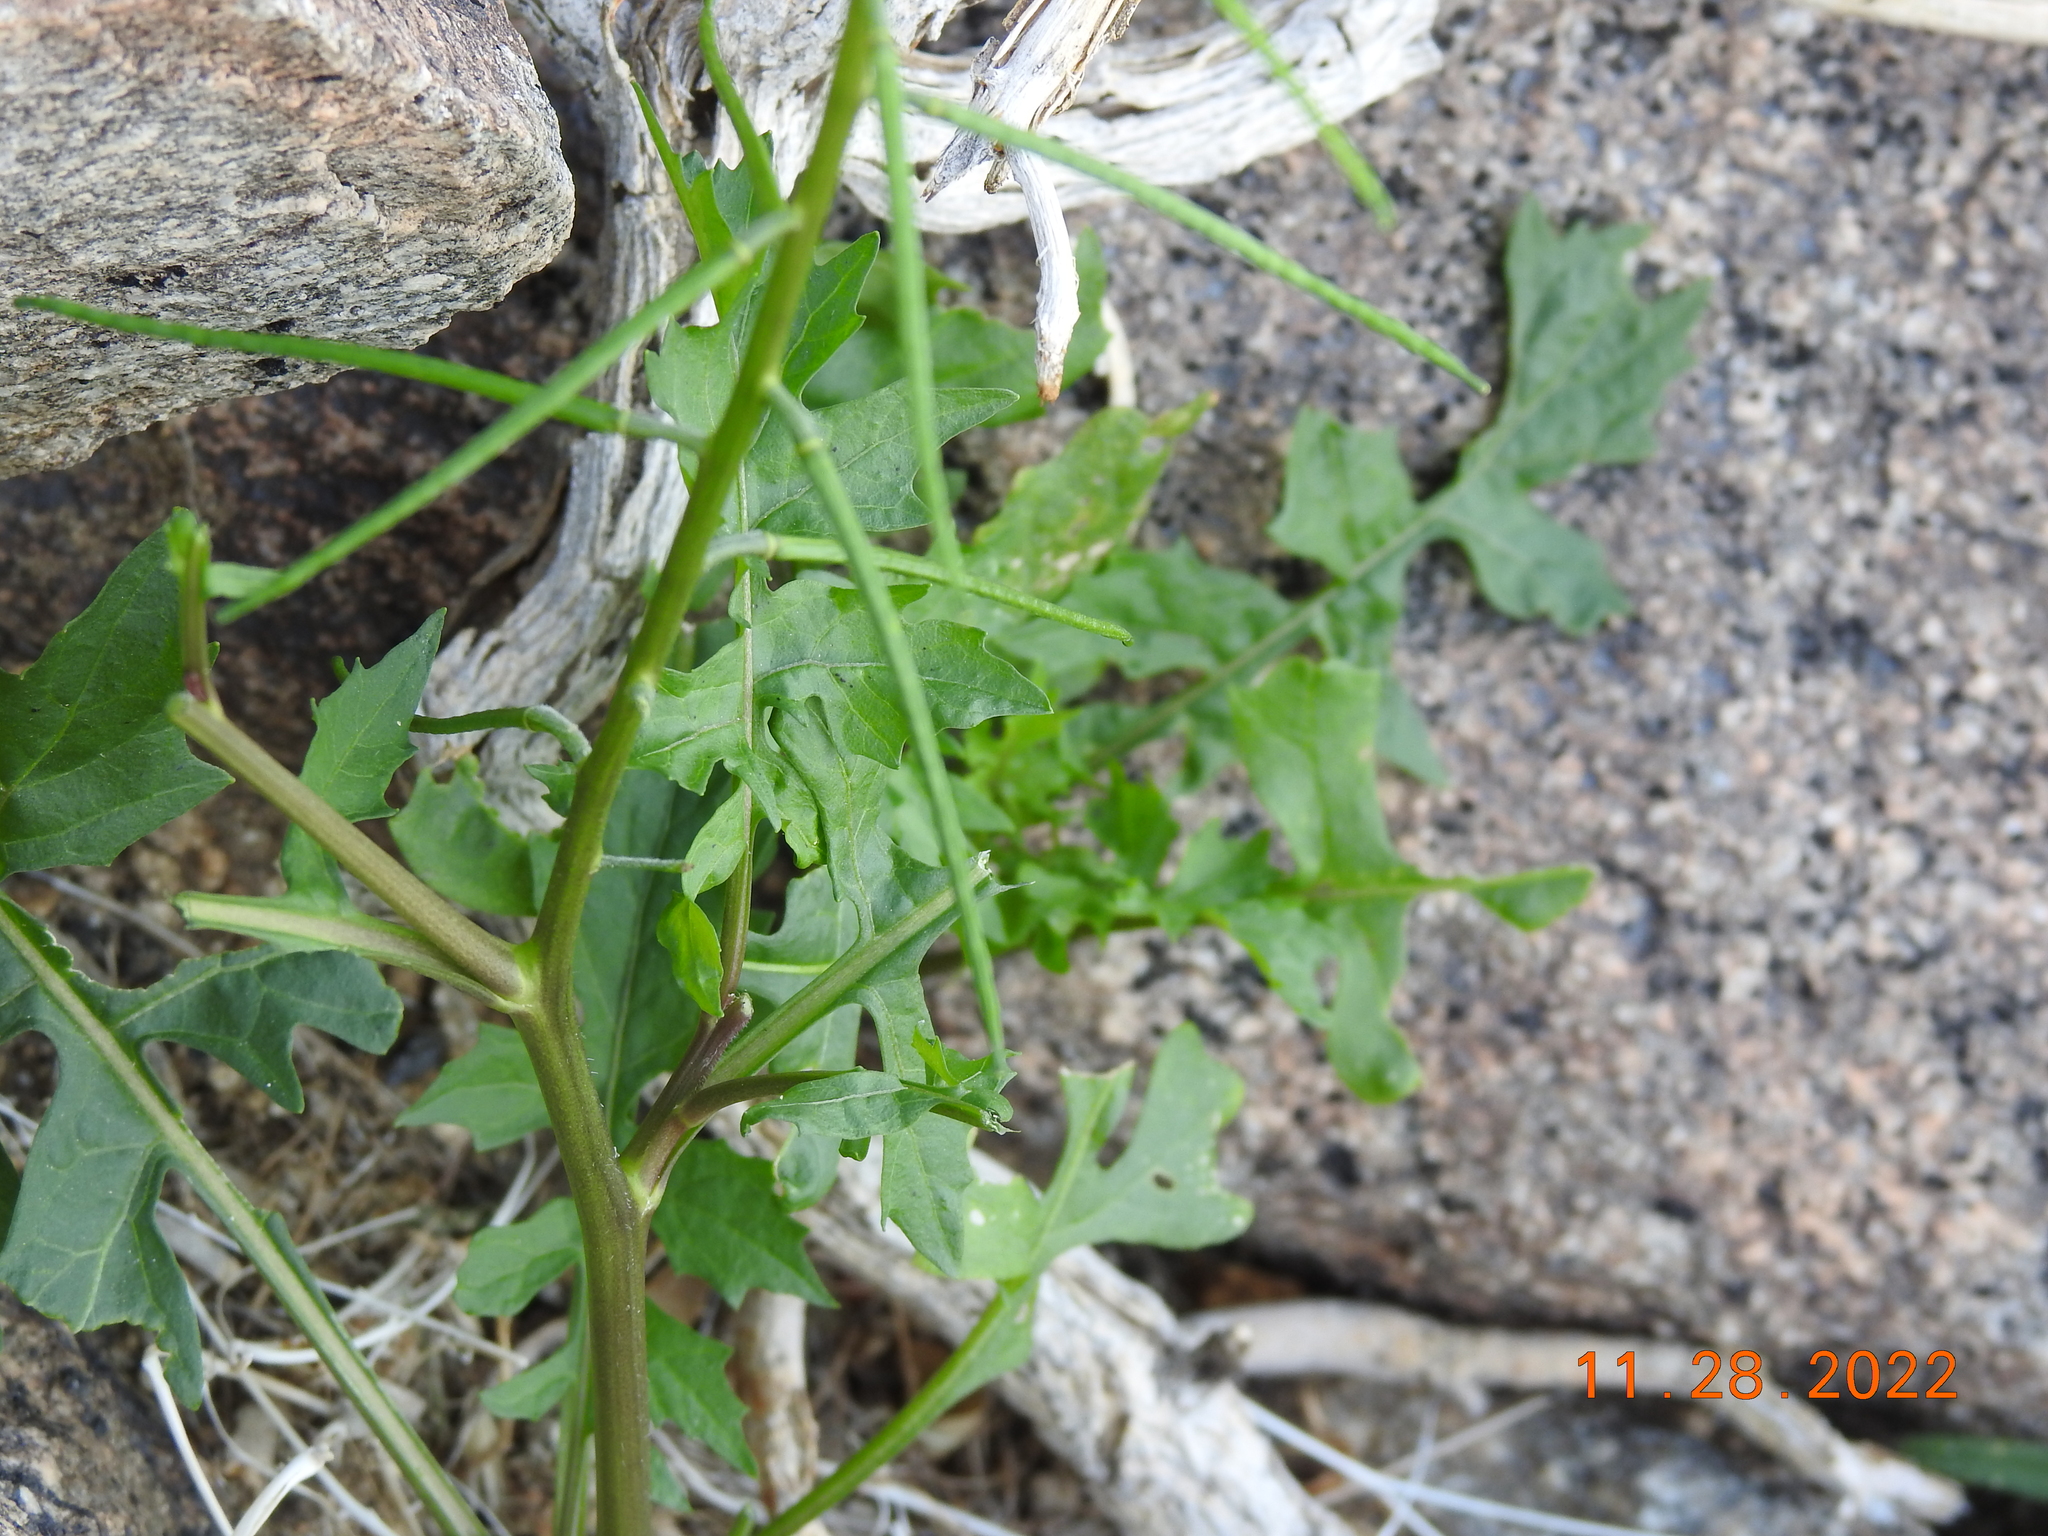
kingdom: Plantae
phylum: Tracheophyta
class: Magnoliopsida
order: Brassicales
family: Brassicaceae
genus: Sisymbrium
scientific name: Sisymbrium irio
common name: London rocket
